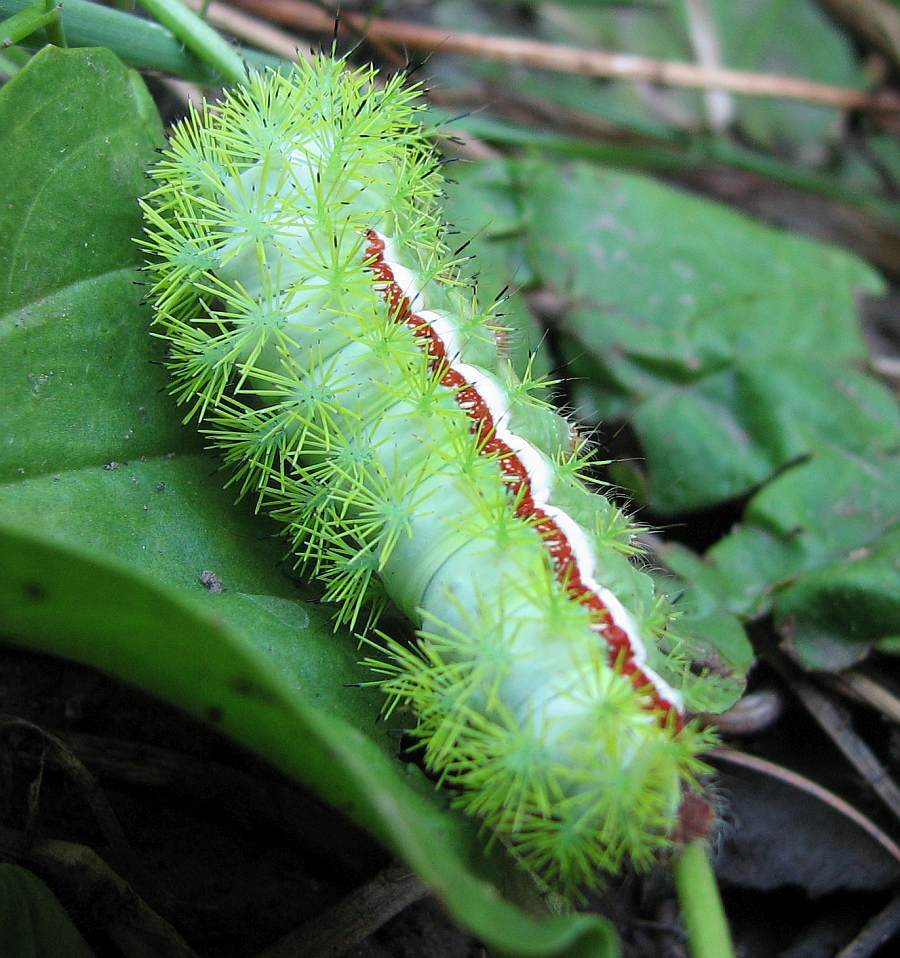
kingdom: Animalia
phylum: Arthropoda
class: Insecta
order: Lepidoptera
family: Saturniidae
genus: Automeris
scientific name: Automeris io
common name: Io moth
